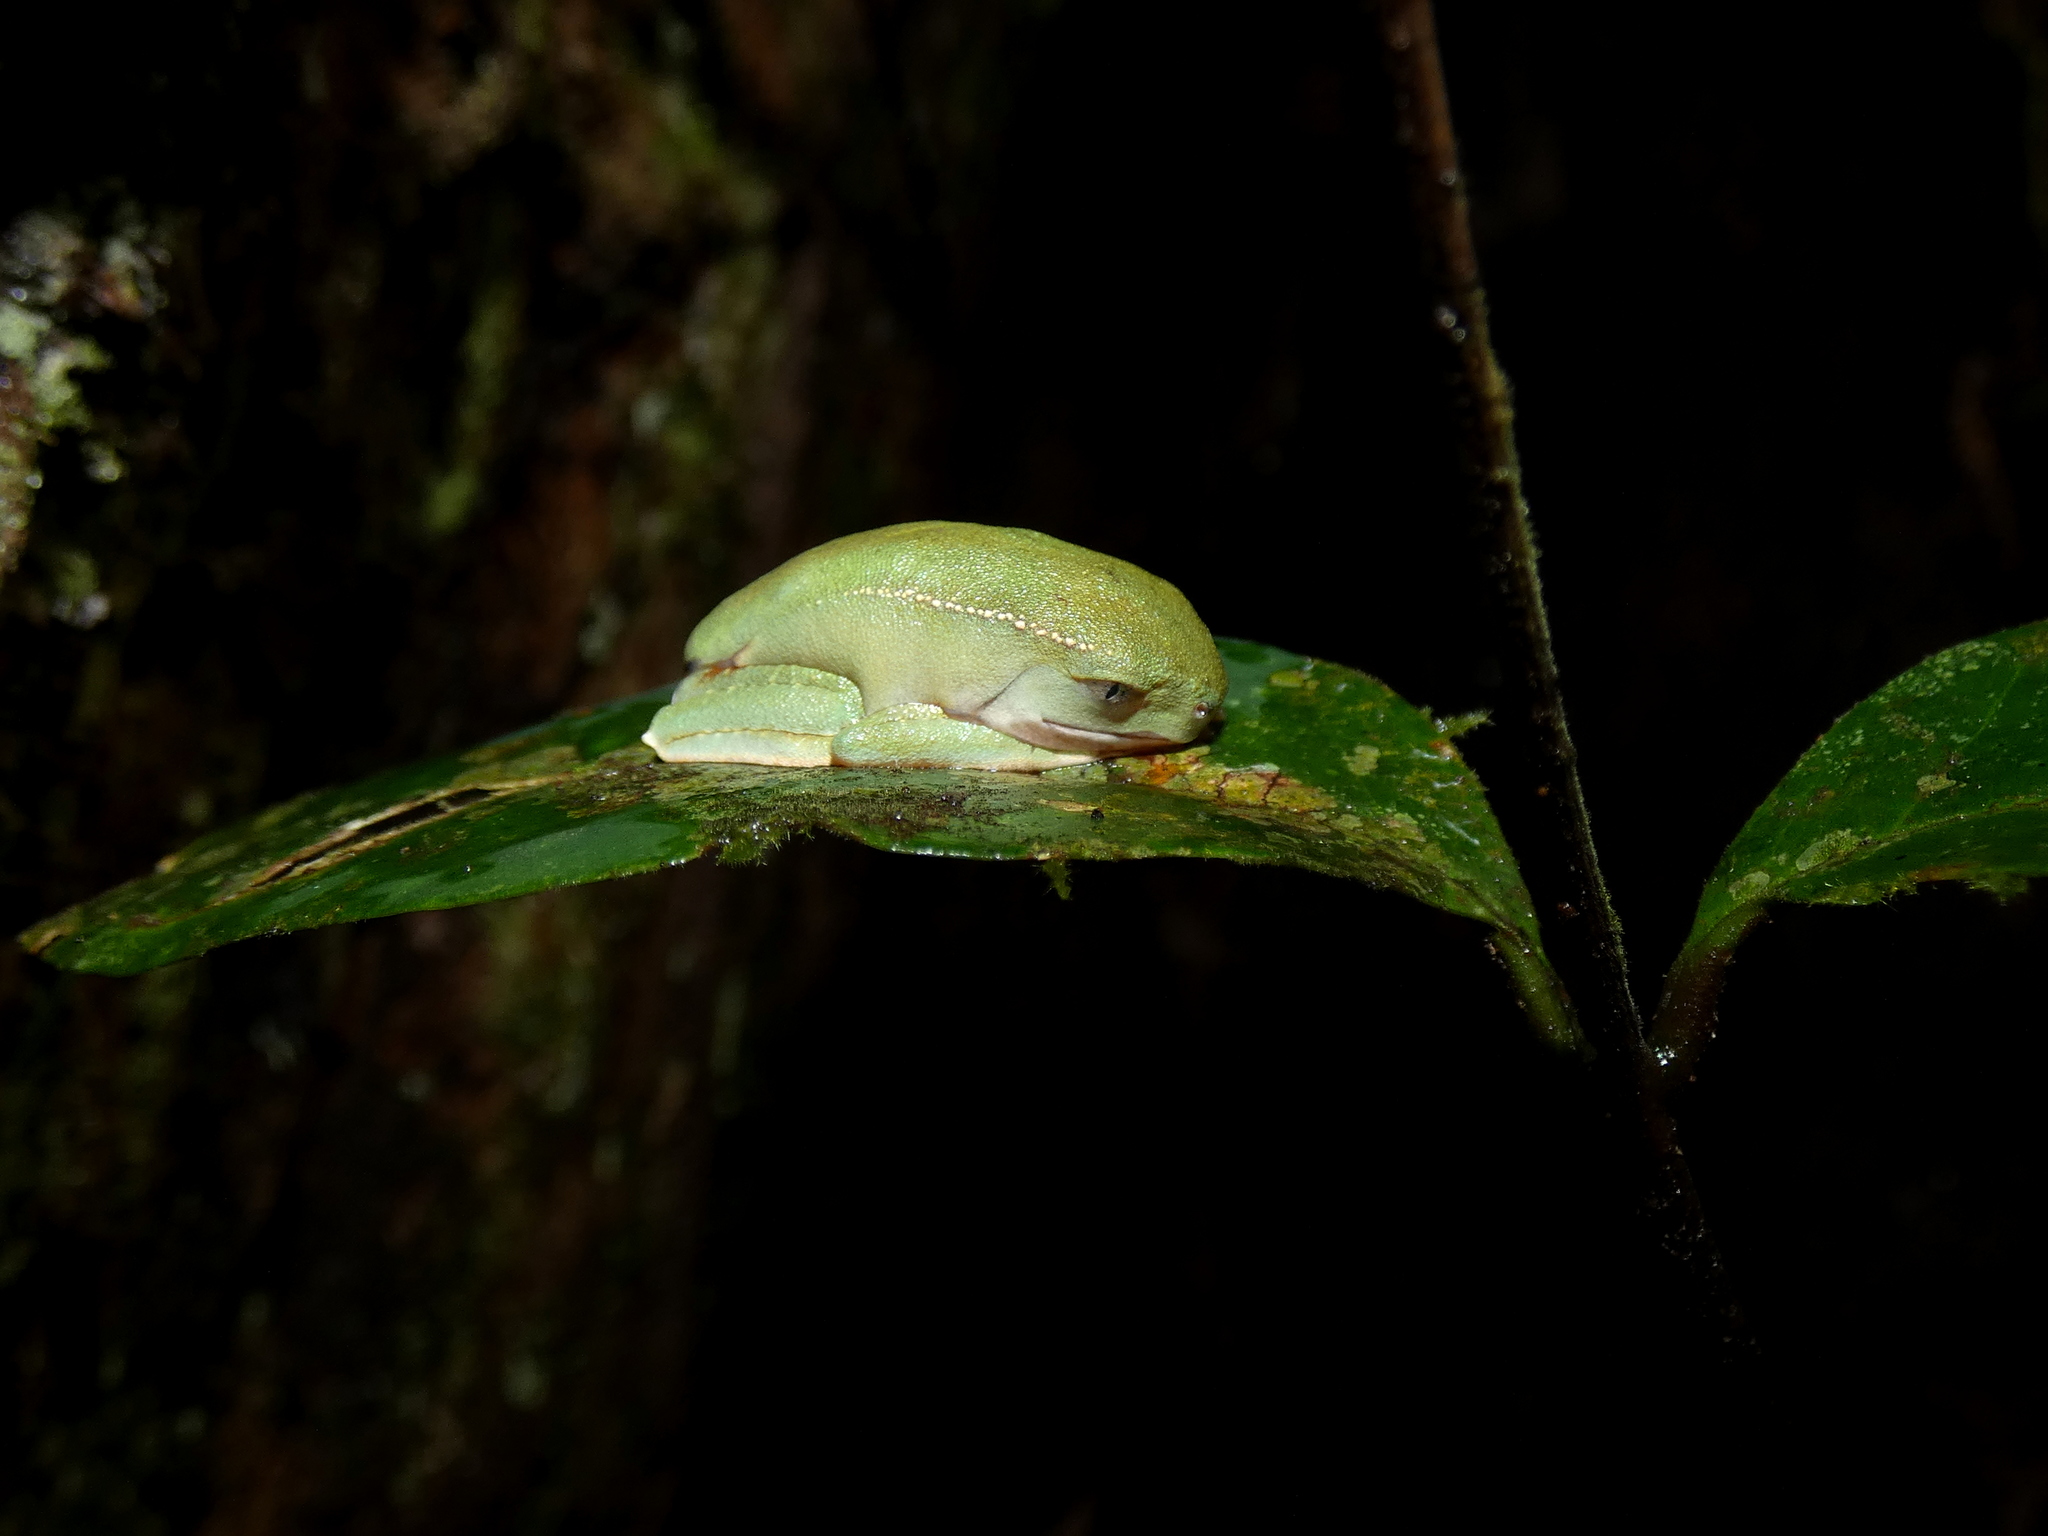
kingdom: Animalia
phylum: Chordata
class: Amphibia
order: Anura
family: Phyllomedusidae
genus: Phyllomedusa
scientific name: Phyllomedusa vaillantii
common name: White-lined leaf frog
